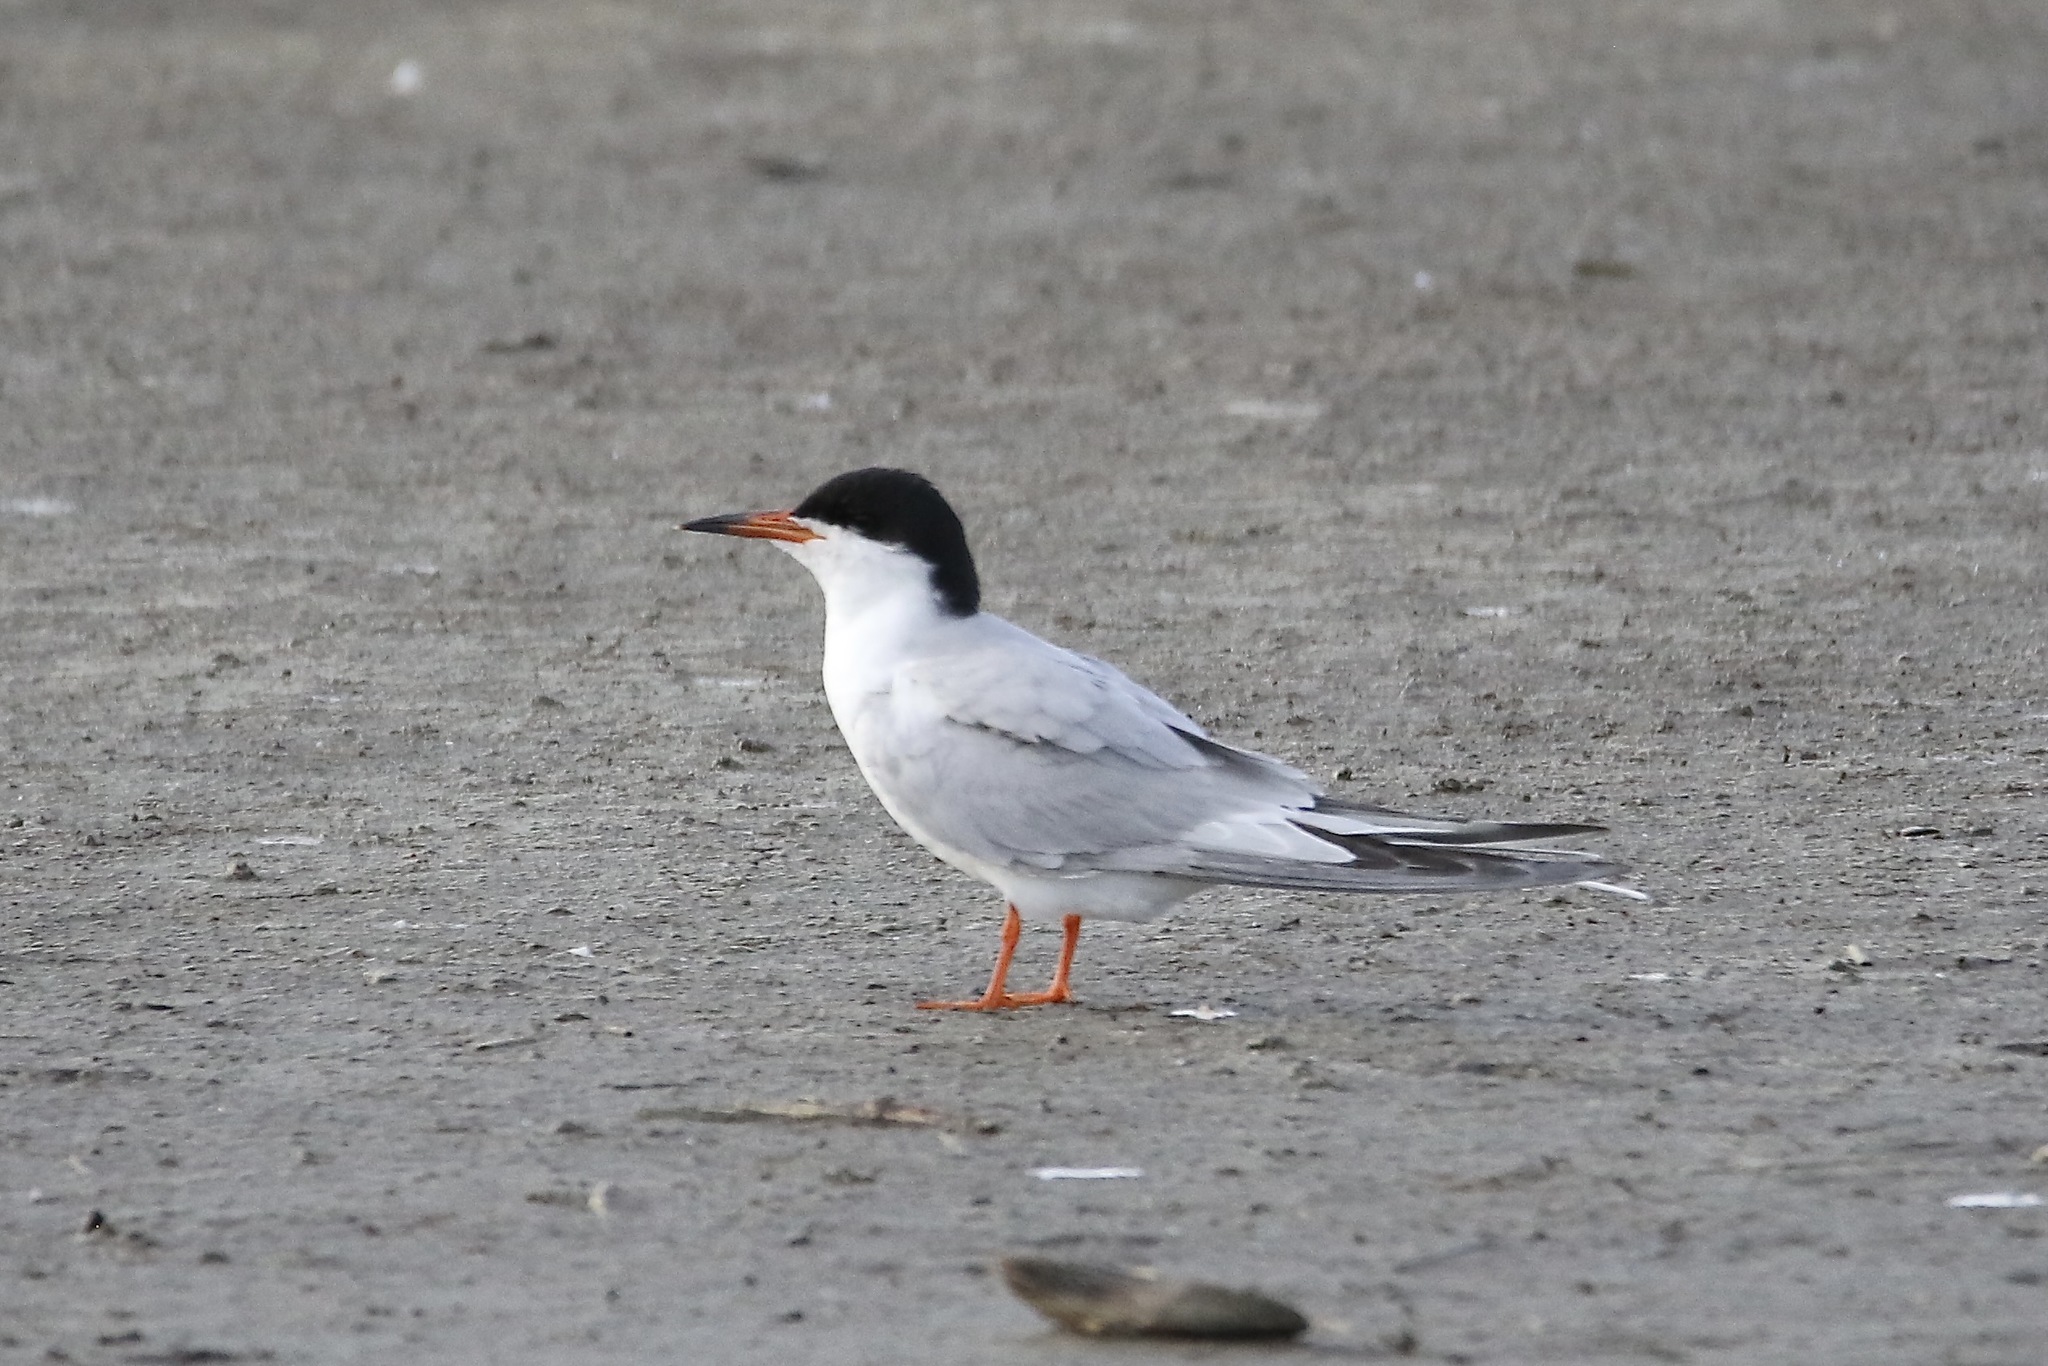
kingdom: Animalia
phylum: Chordata
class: Aves
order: Charadriiformes
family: Laridae
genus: Sterna
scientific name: Sterna hirundo
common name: Common tern
